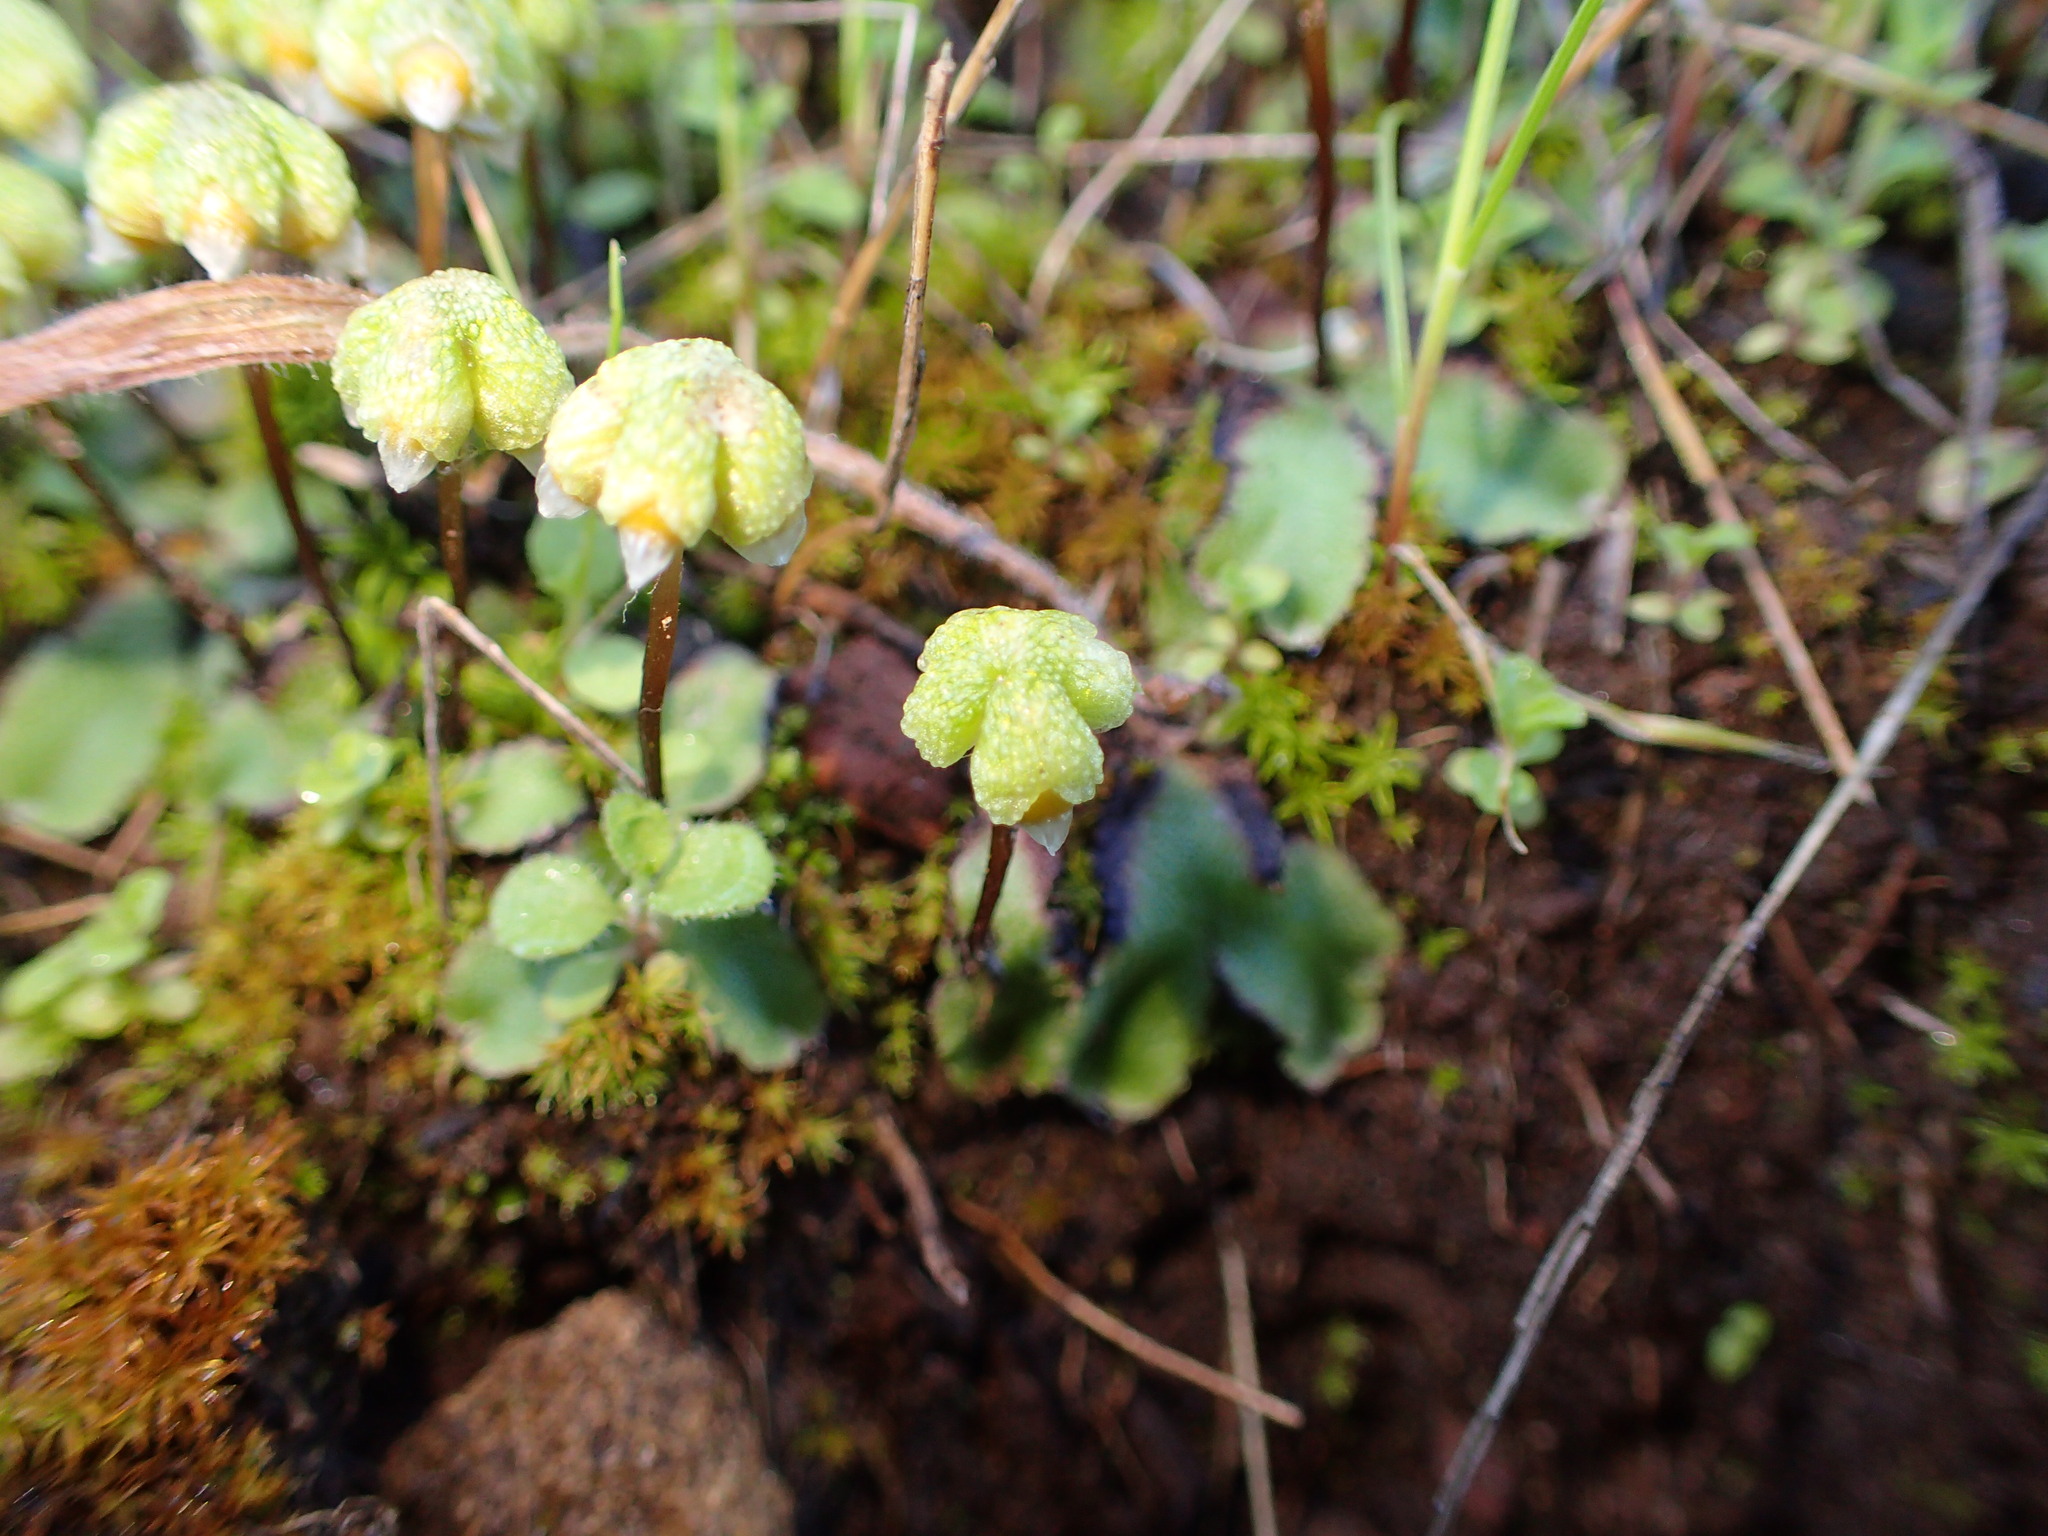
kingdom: Plantae
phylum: Marchantiophyta
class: Marchantiopsida
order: Marchantiales
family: Aytoniaceae
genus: Asterella
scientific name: Asterella californica
